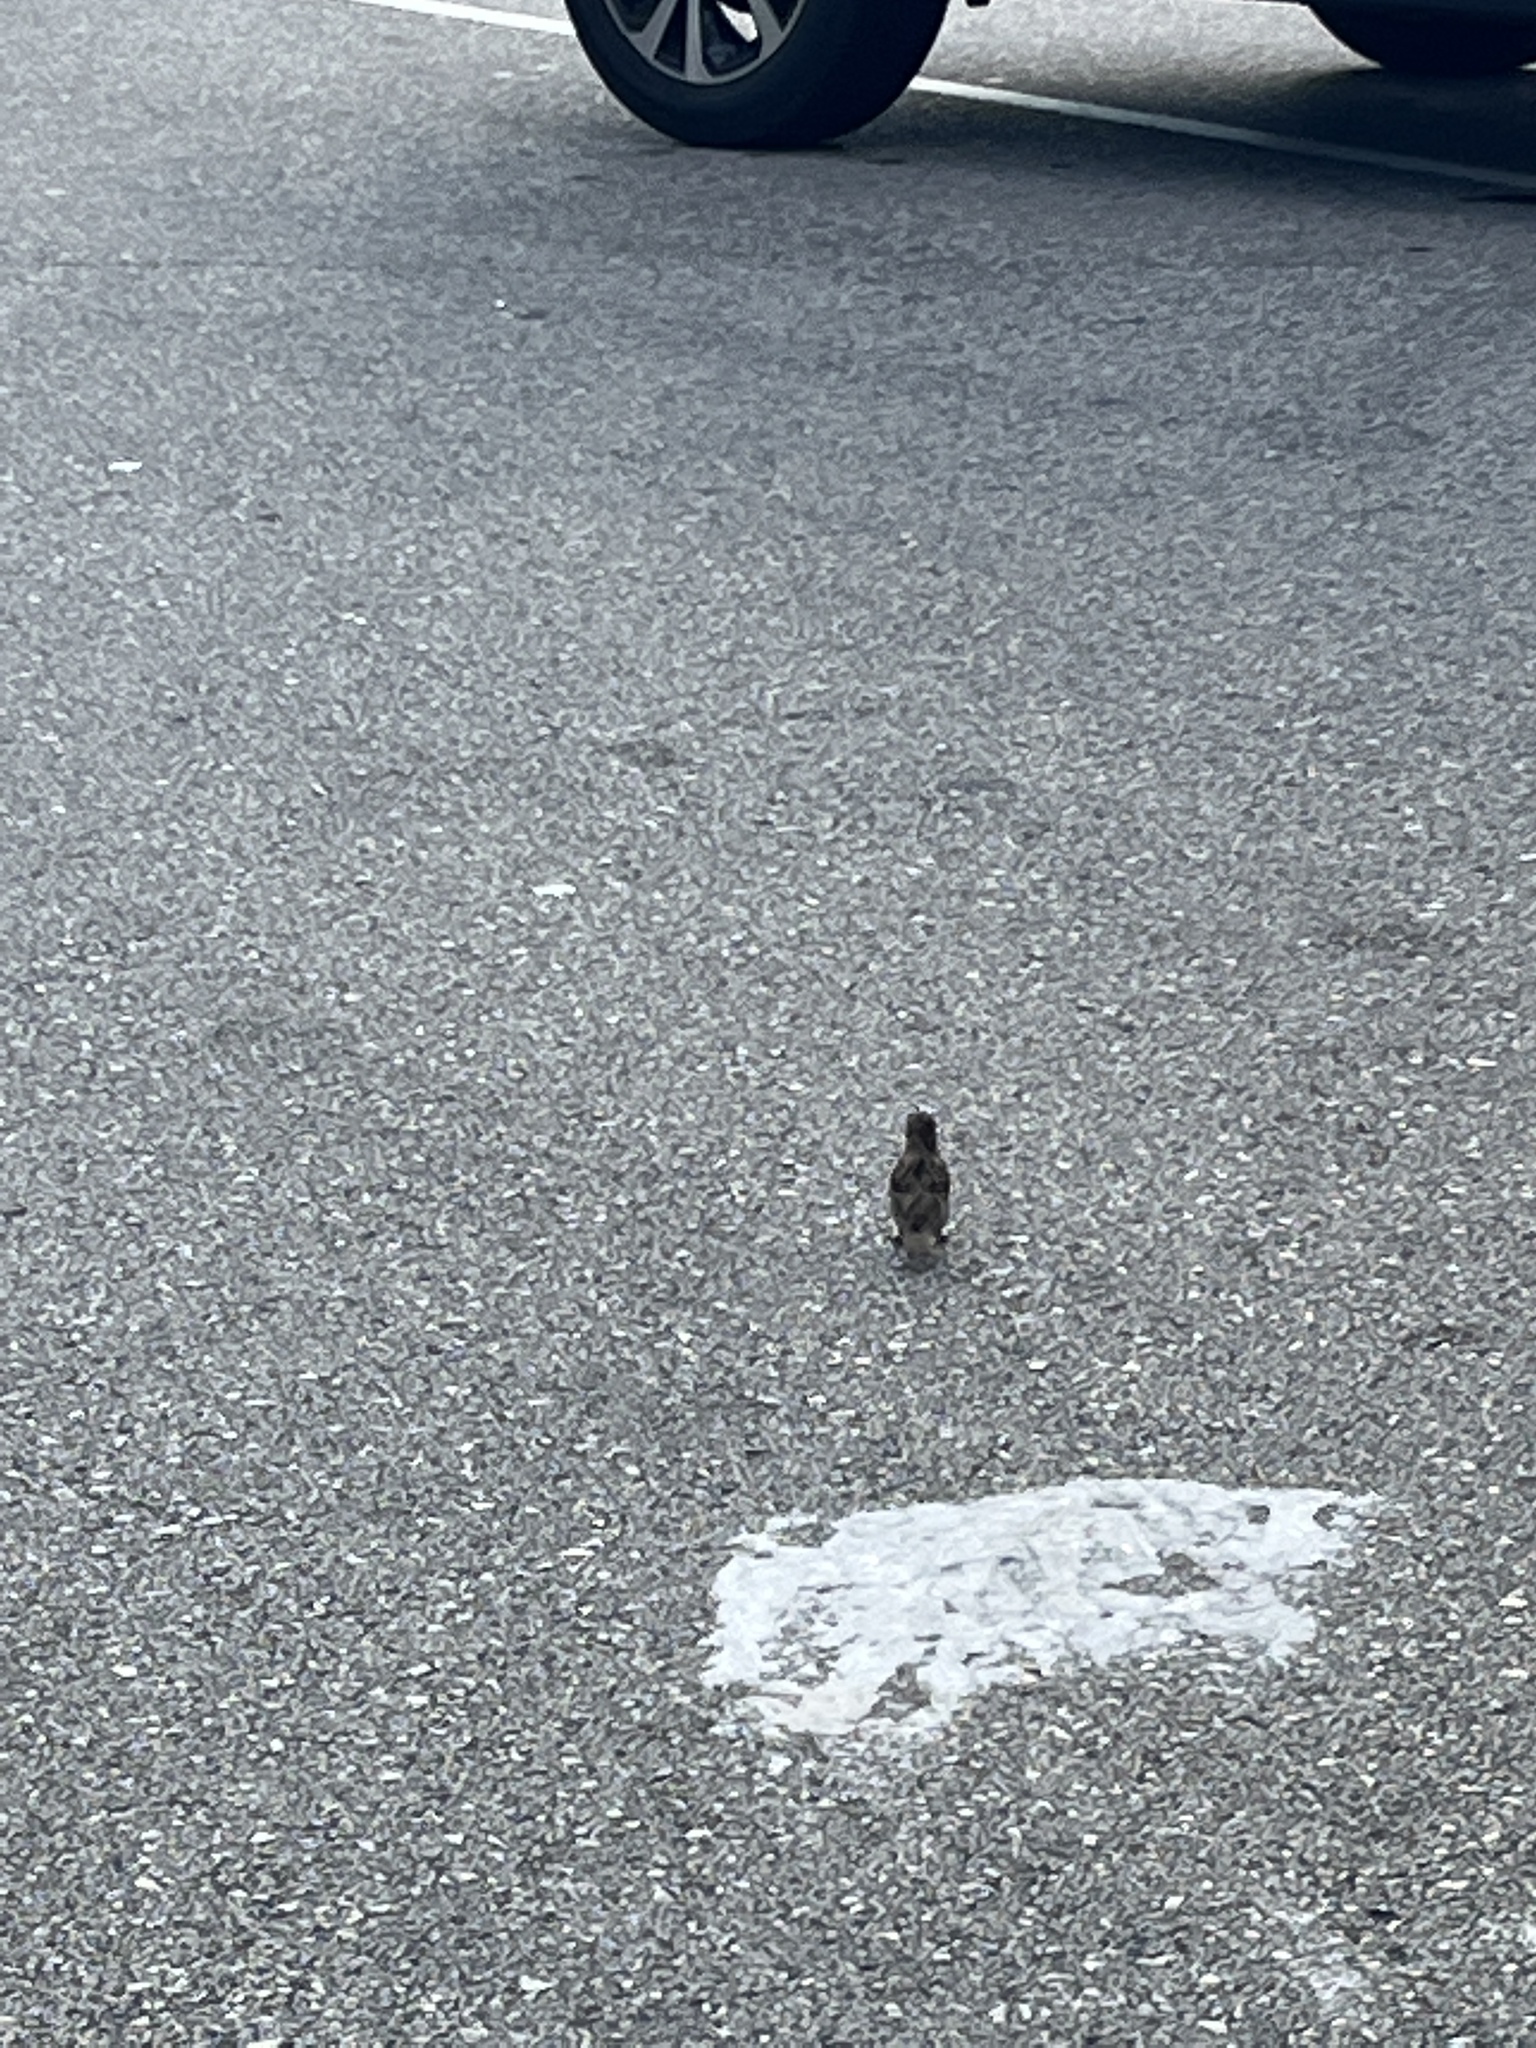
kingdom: Animalia
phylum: Chordata
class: Aves
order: Passeriformes
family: Passeridae
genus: Passer
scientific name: Passer domesticus
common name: House sparrow
